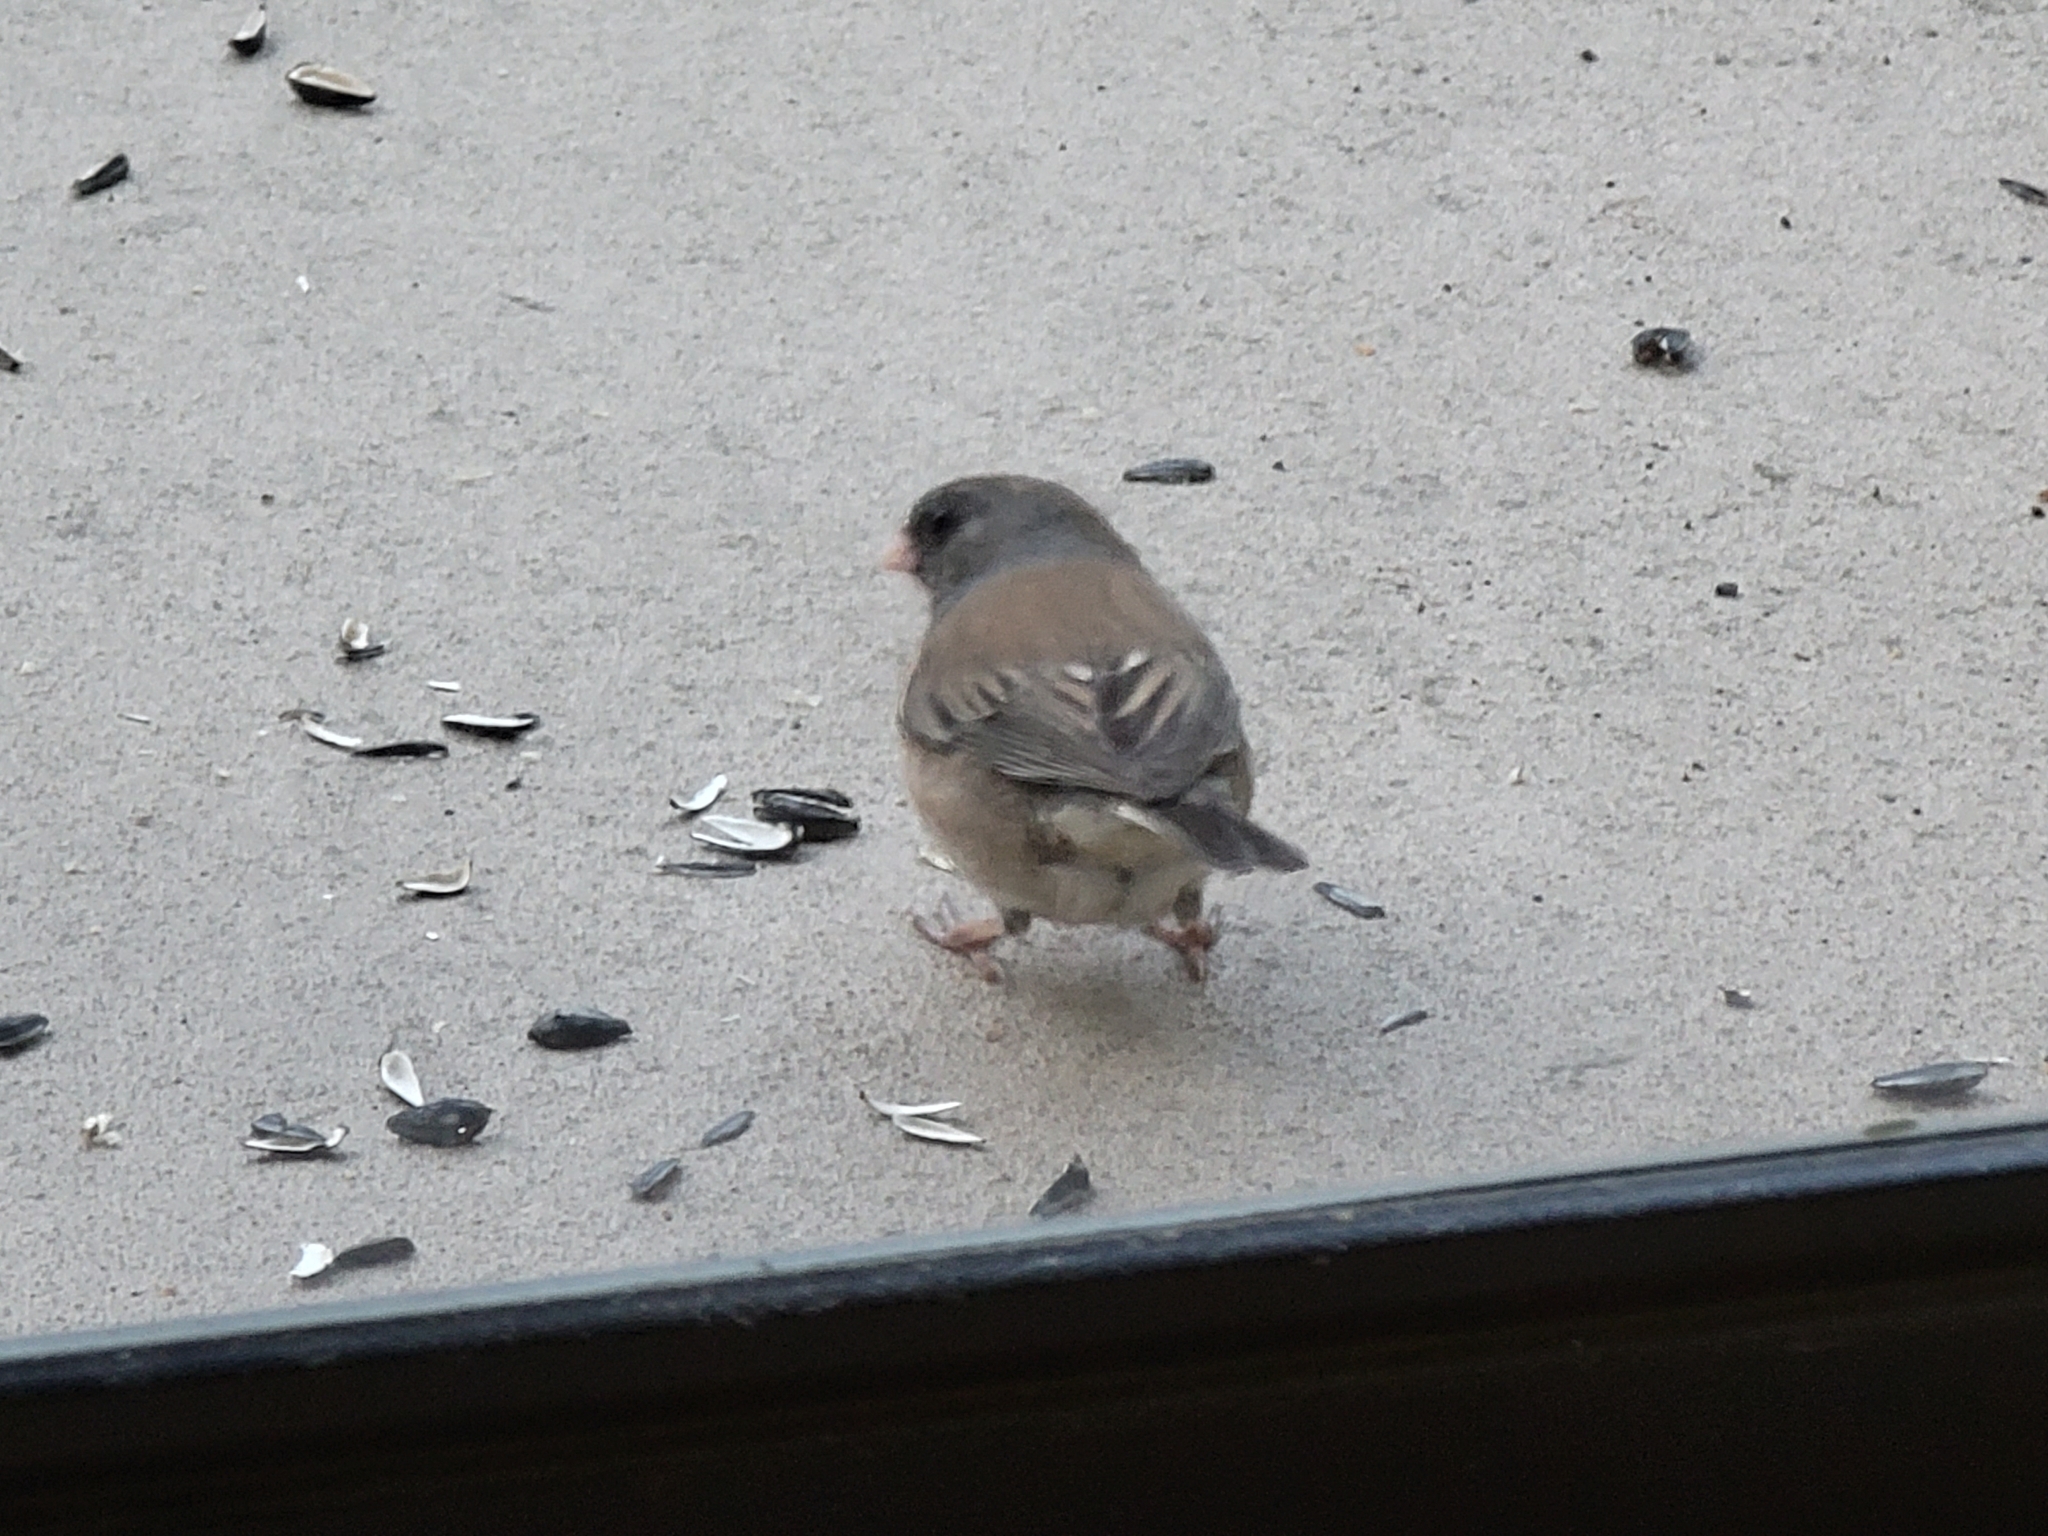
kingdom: Animalia
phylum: Chordata
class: Aves
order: Passeriformes
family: Passerellidae
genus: Junco
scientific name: Junco hyemalis
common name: Dark-eyed junco
